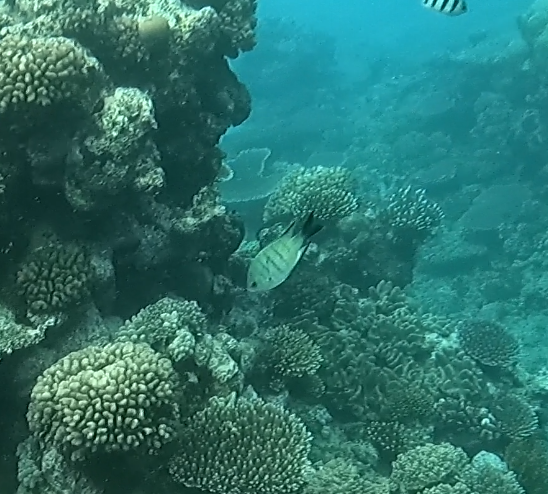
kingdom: Animalia
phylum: Chordata
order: Perciformes
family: Pomacentridae
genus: Abudefduf
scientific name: Abudefduf whitleyi
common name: Whitley's seargent
